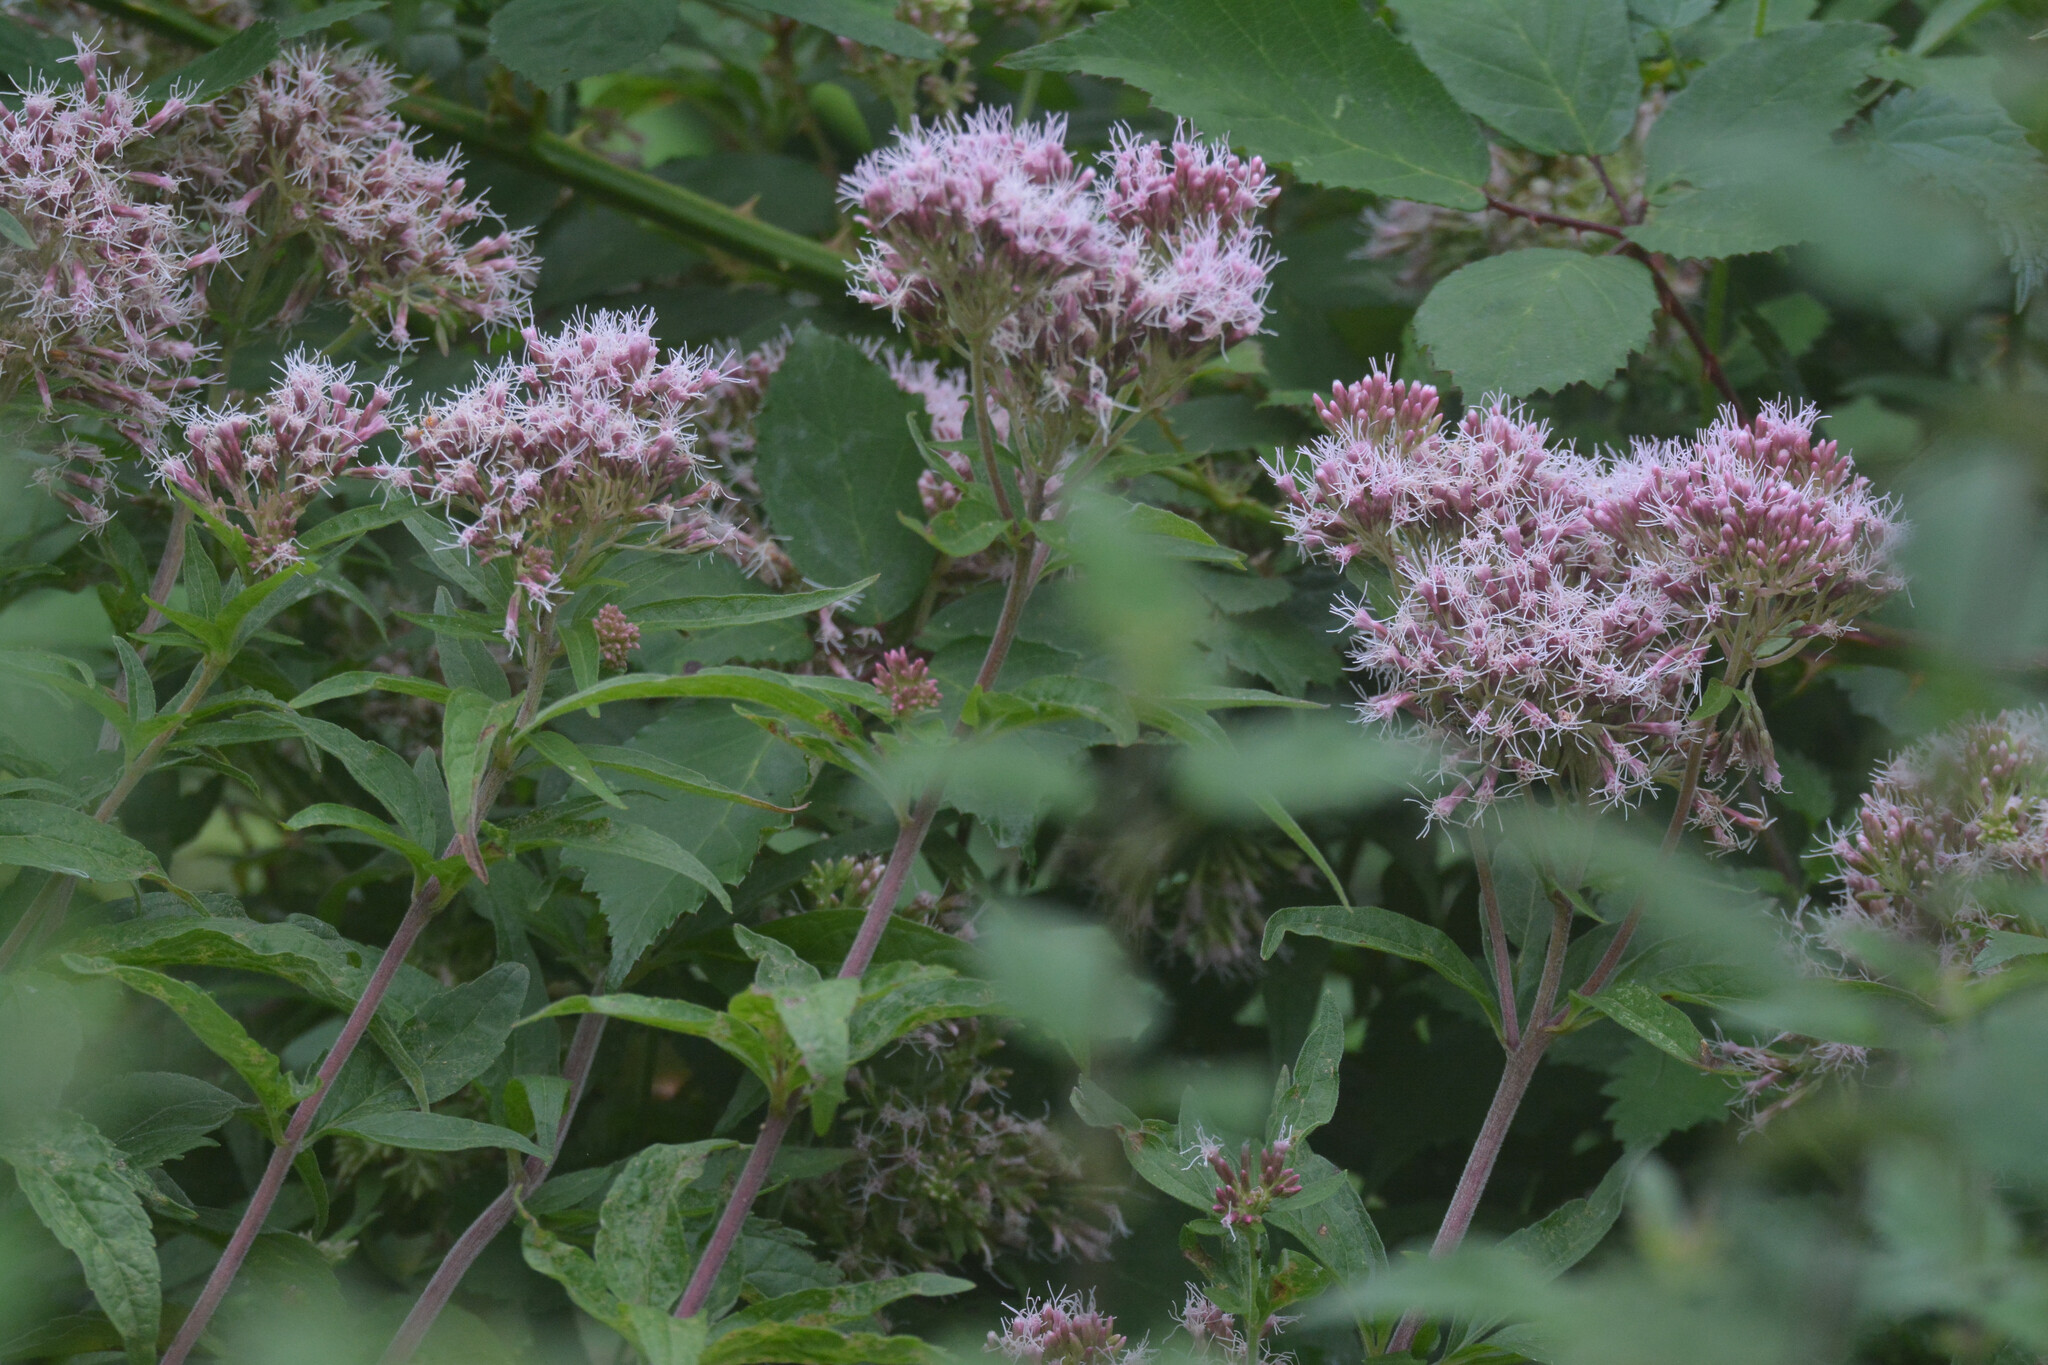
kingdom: Plantae
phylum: Tracheophyta
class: Magnoliopsida
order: Asterales
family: Asteraceae
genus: Eupatorium
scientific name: Eupatorium cannabinum
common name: Hemp-agrimony
